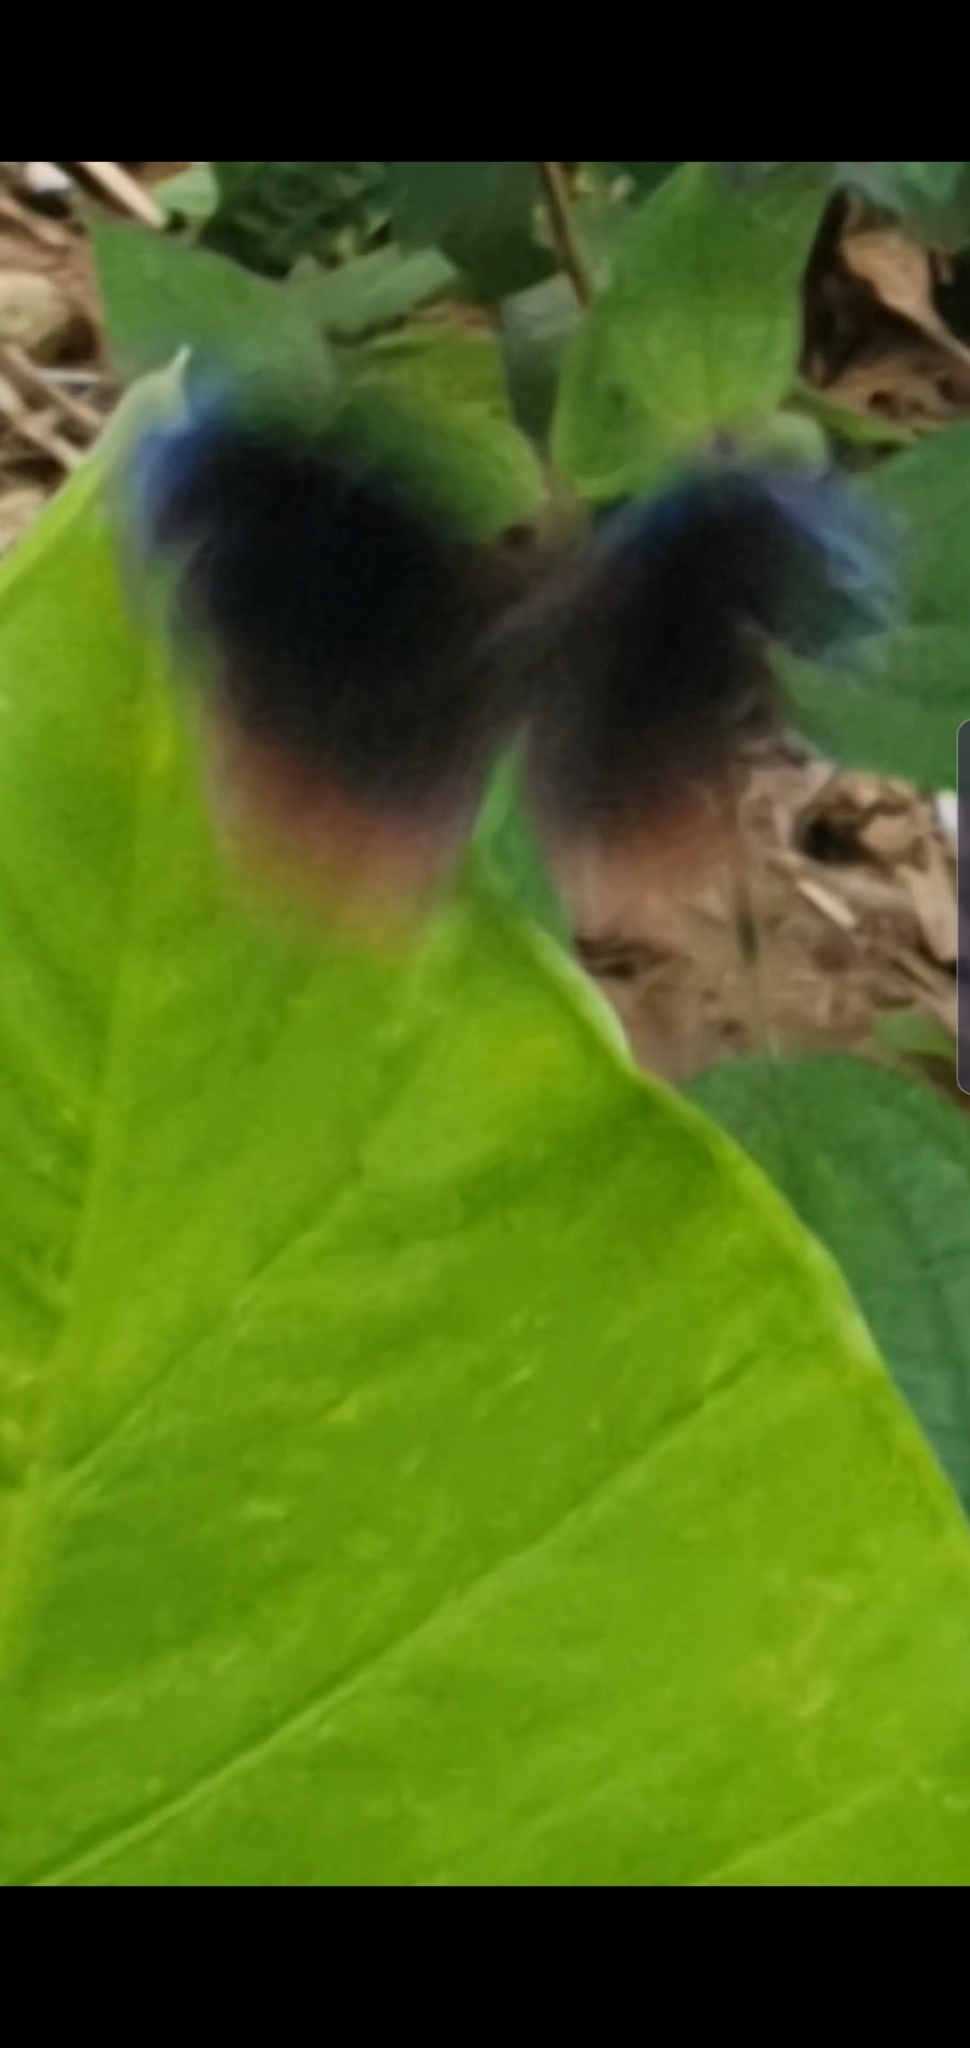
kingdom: Animalia
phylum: Arthropoda
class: Insecta
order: Lepidoptera
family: Nymphalidae
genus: Elymnias
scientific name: Elymnias hypermnestra
